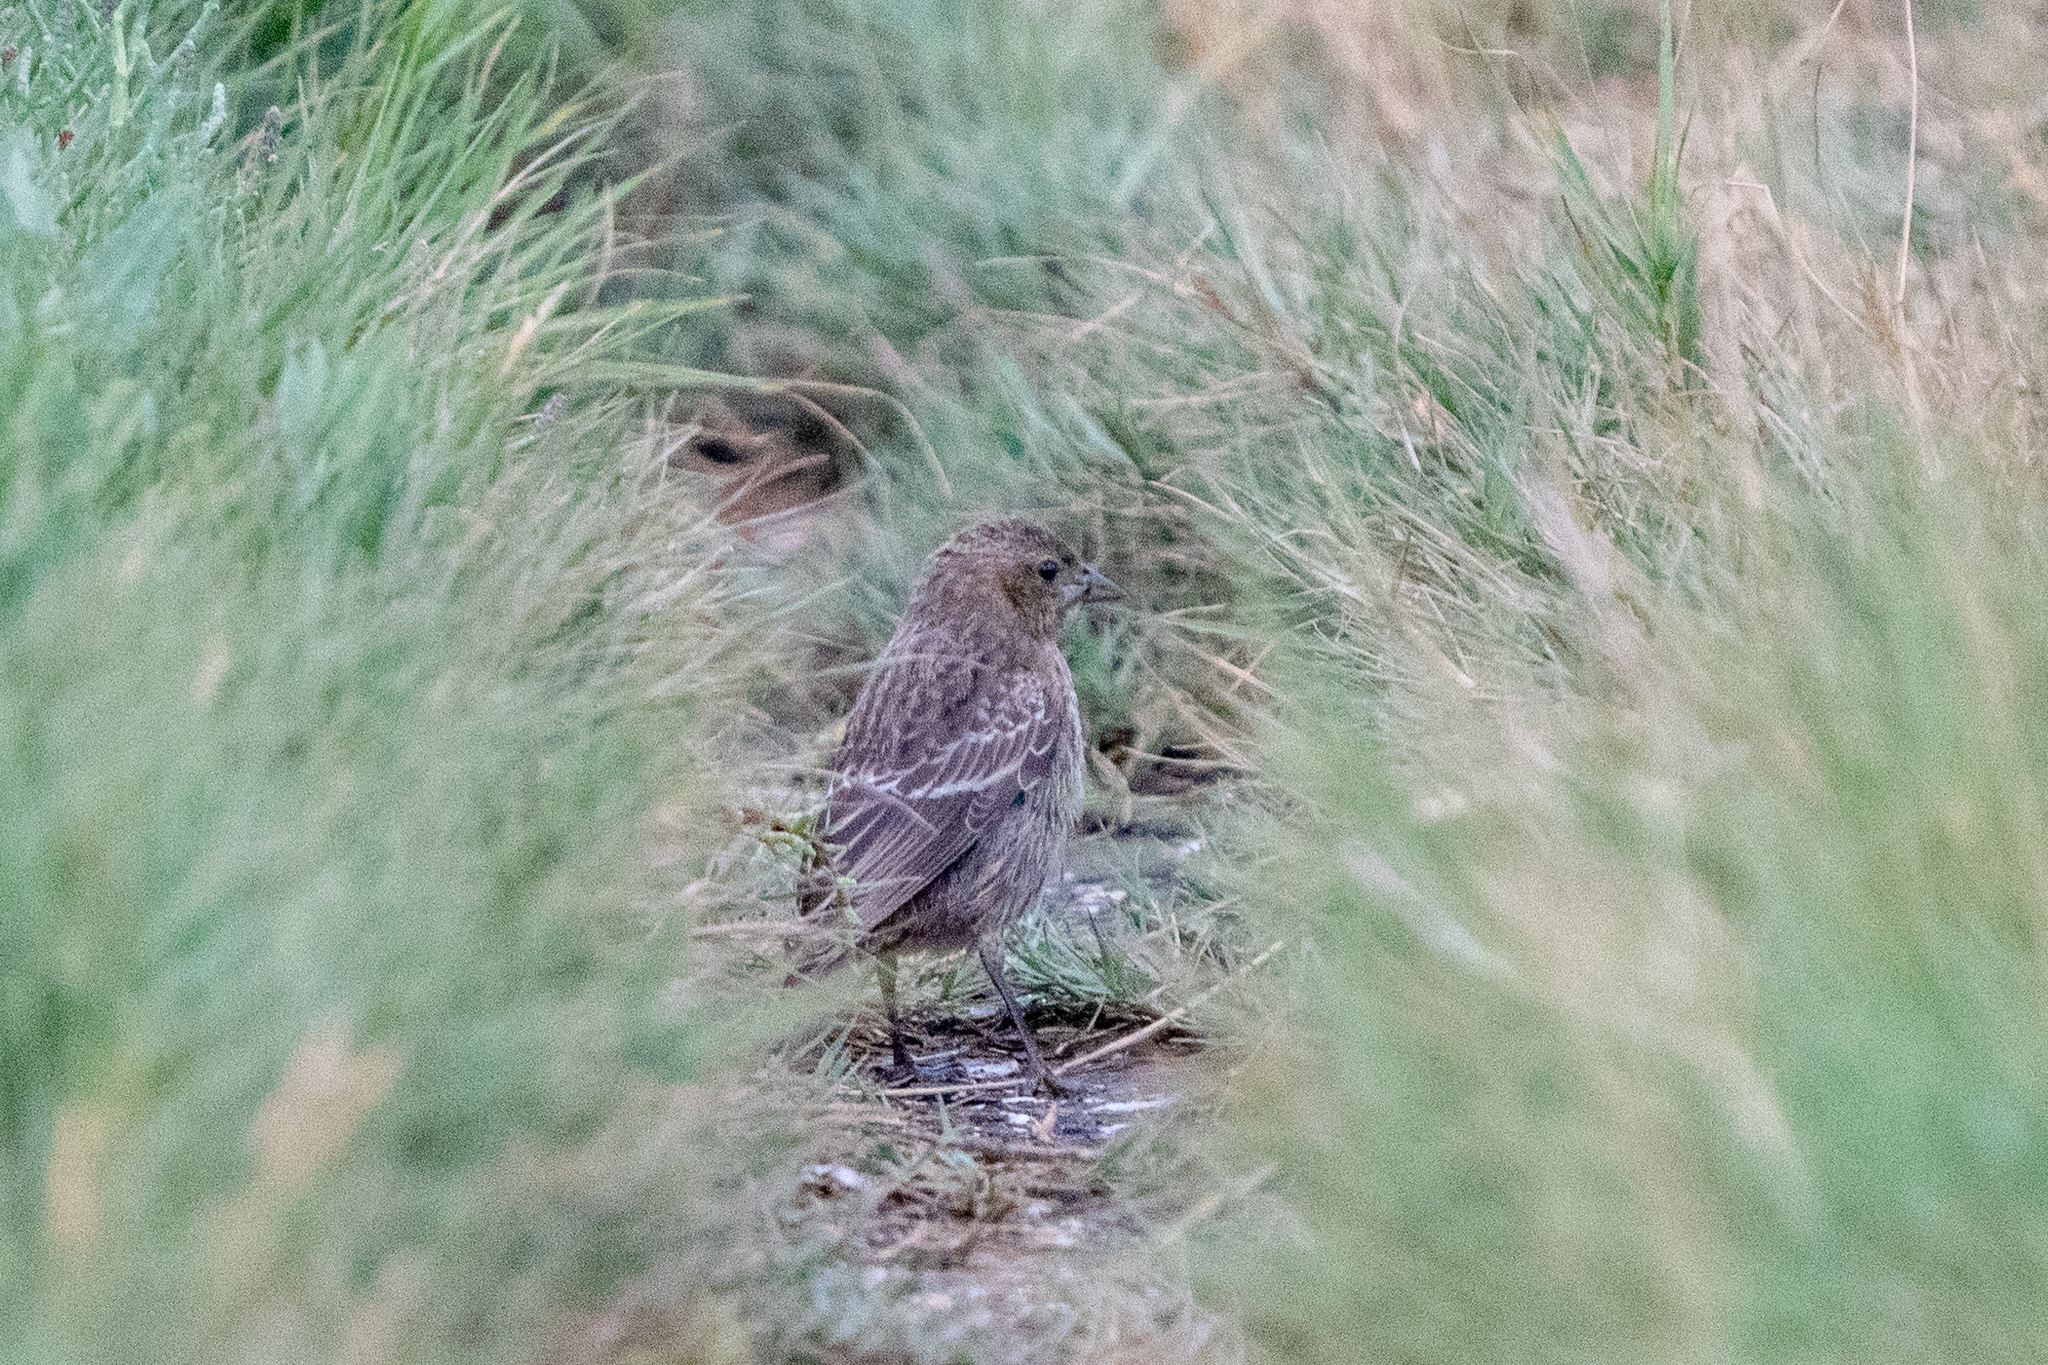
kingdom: Animalia
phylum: Chordata
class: Aves
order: Passeriformes
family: Icteridae
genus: Molothrus
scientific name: Molothrus ater
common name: Brown-headed cowbird
